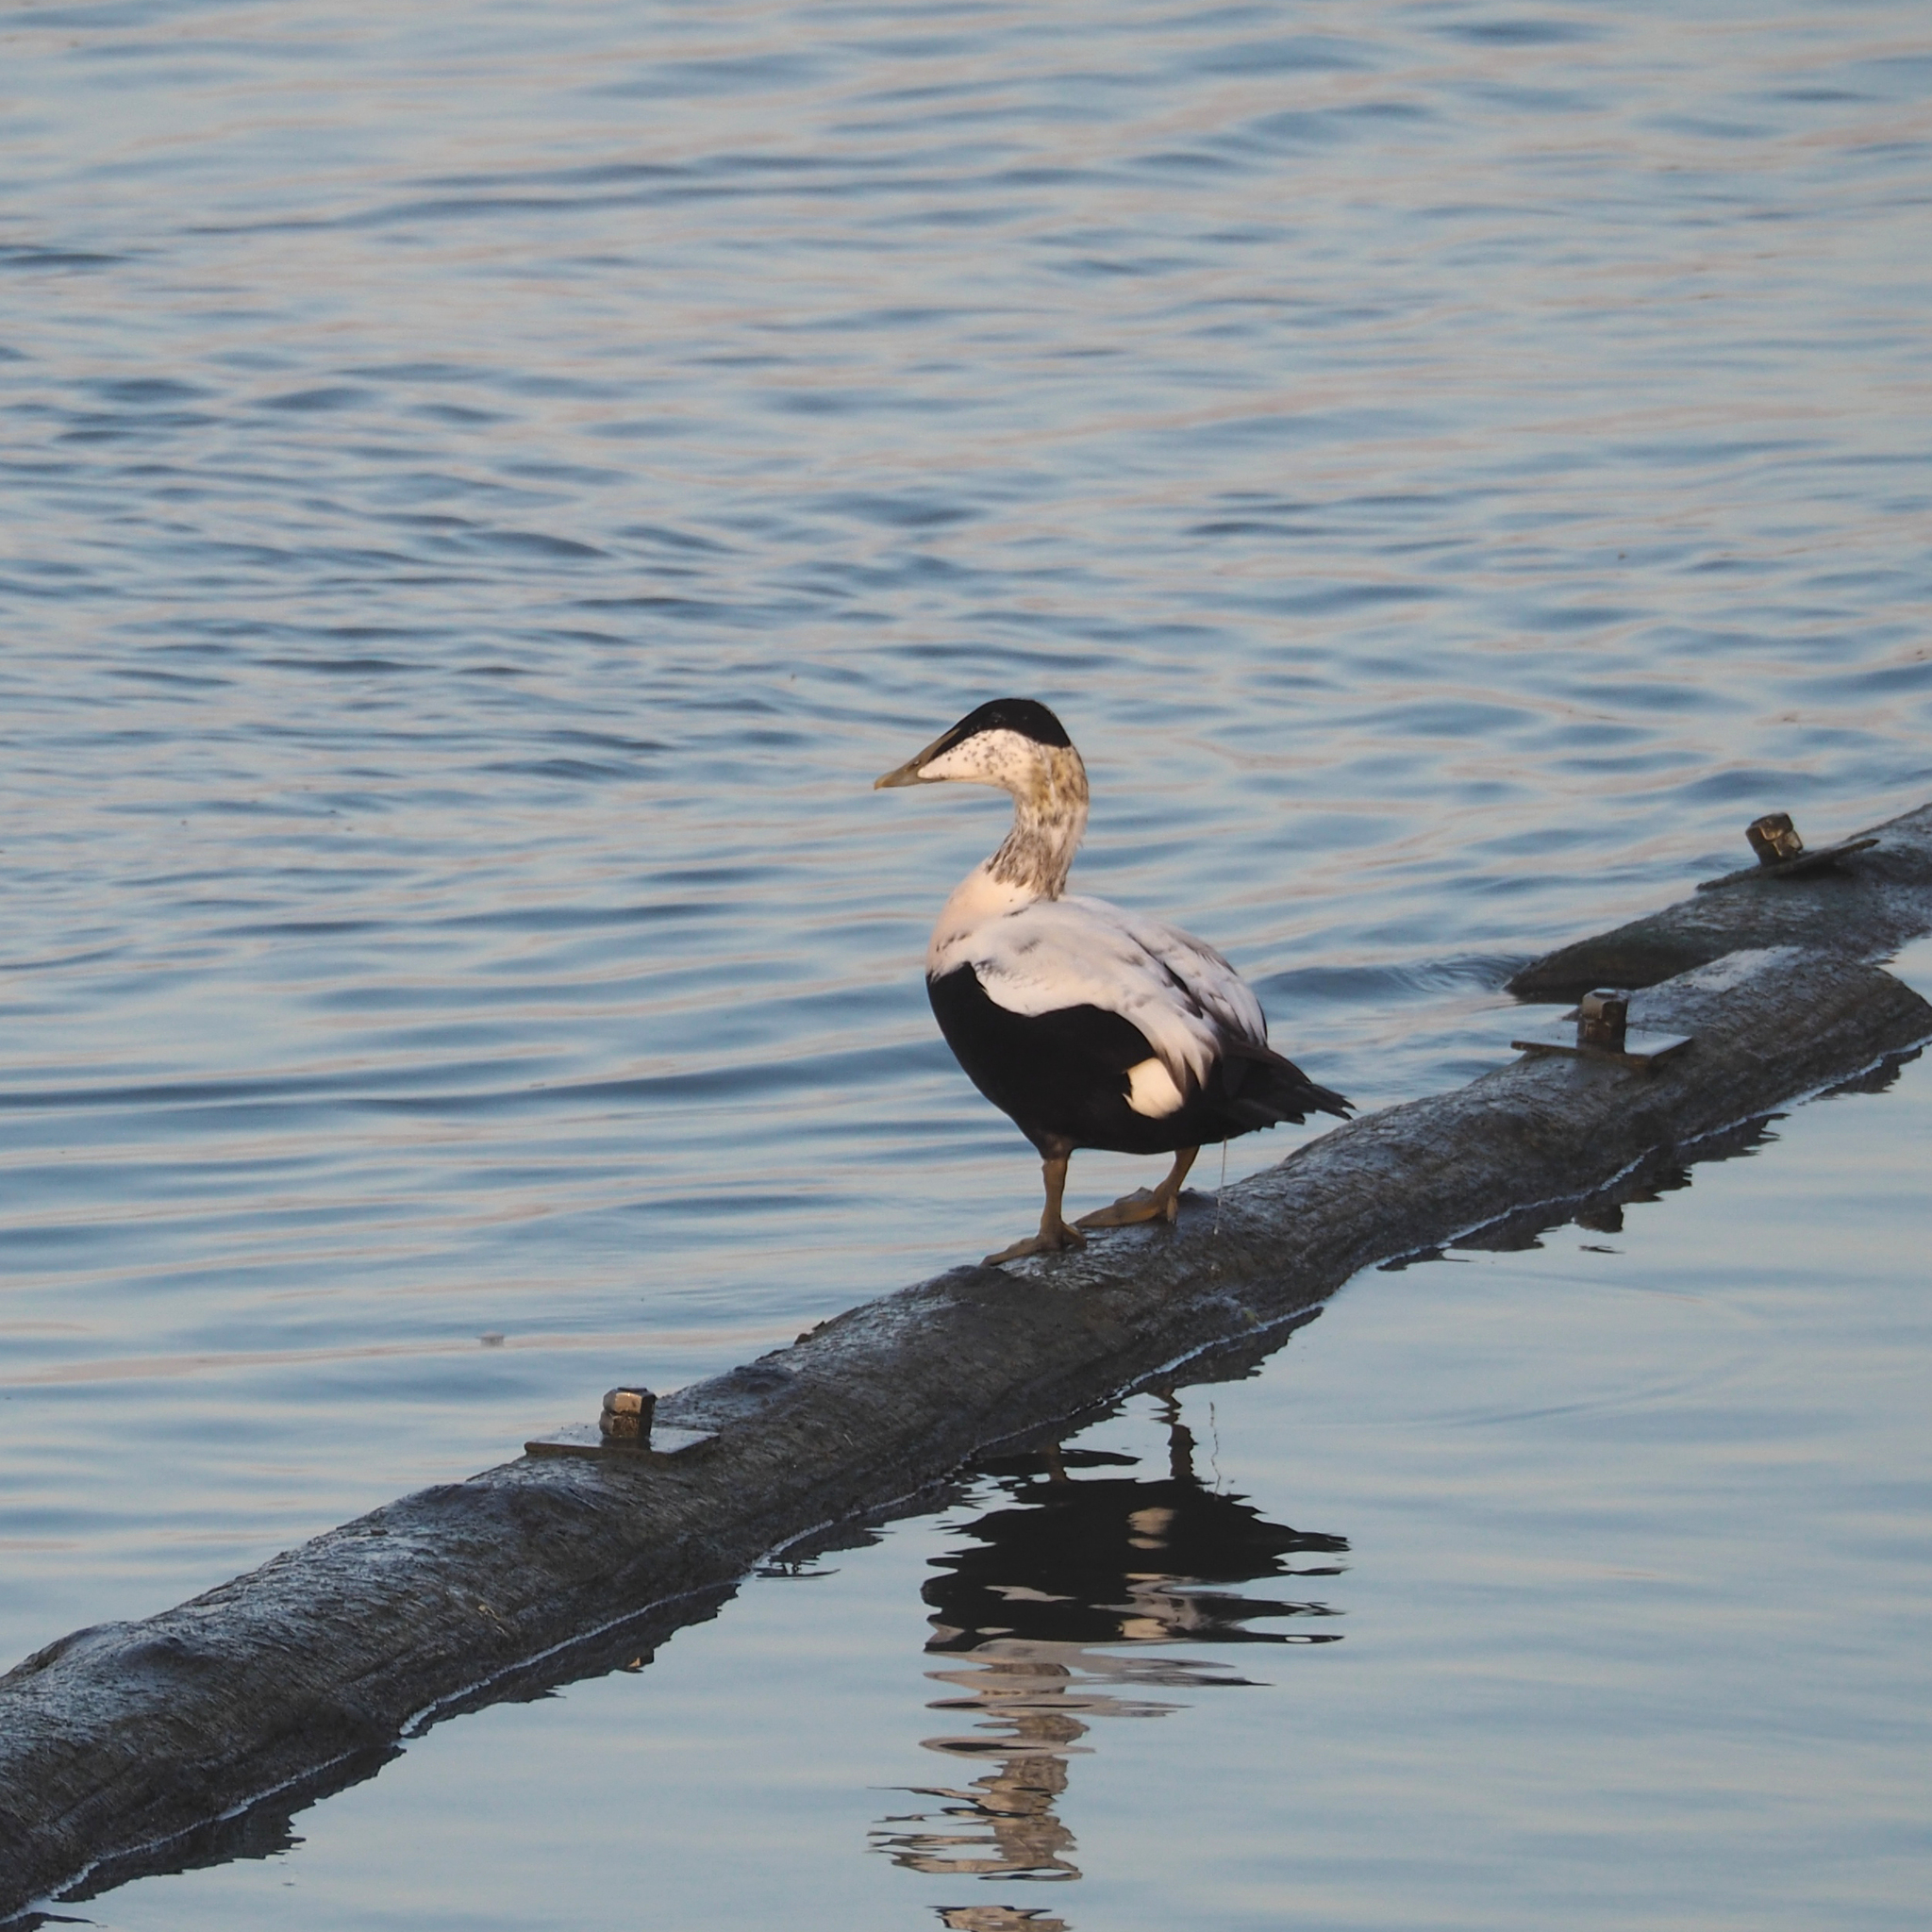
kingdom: Animalia
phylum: Chordata
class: Aves
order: Anseriformes
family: Anatidae
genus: Somateria
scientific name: Somateria mollissima
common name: Common eider
